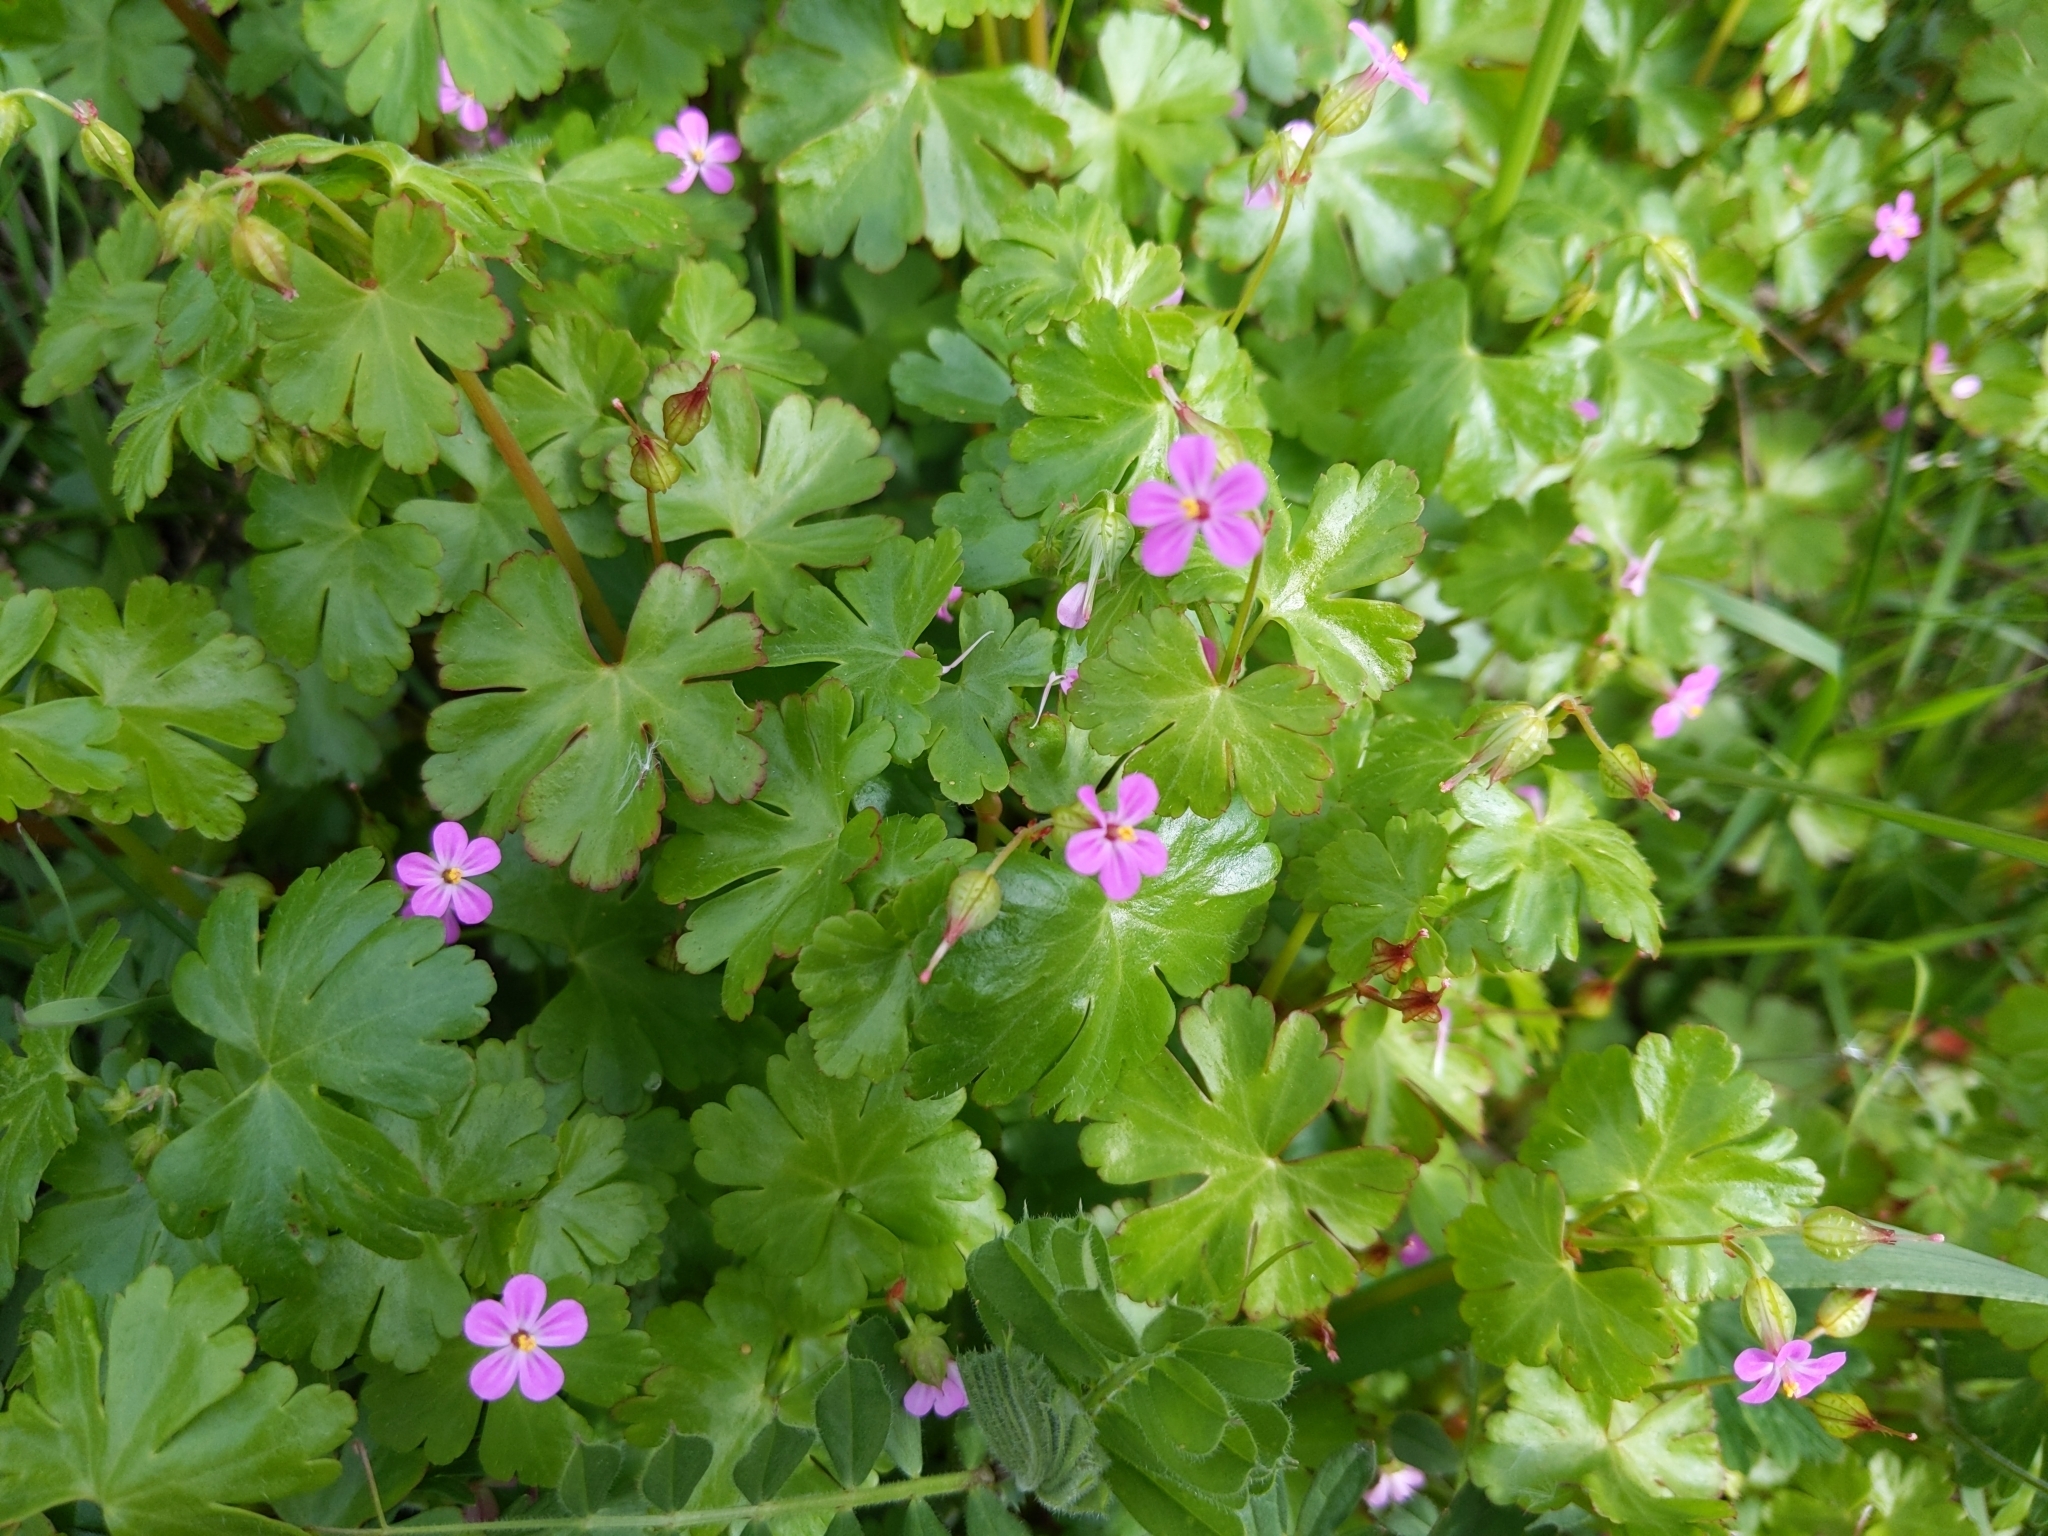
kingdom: Plantae
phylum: Tracheophyta
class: Magnoliopsida
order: Geraniales
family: Geraniaceae
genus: Geranium
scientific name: Geranium lucidum
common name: Shining crane's-bill
